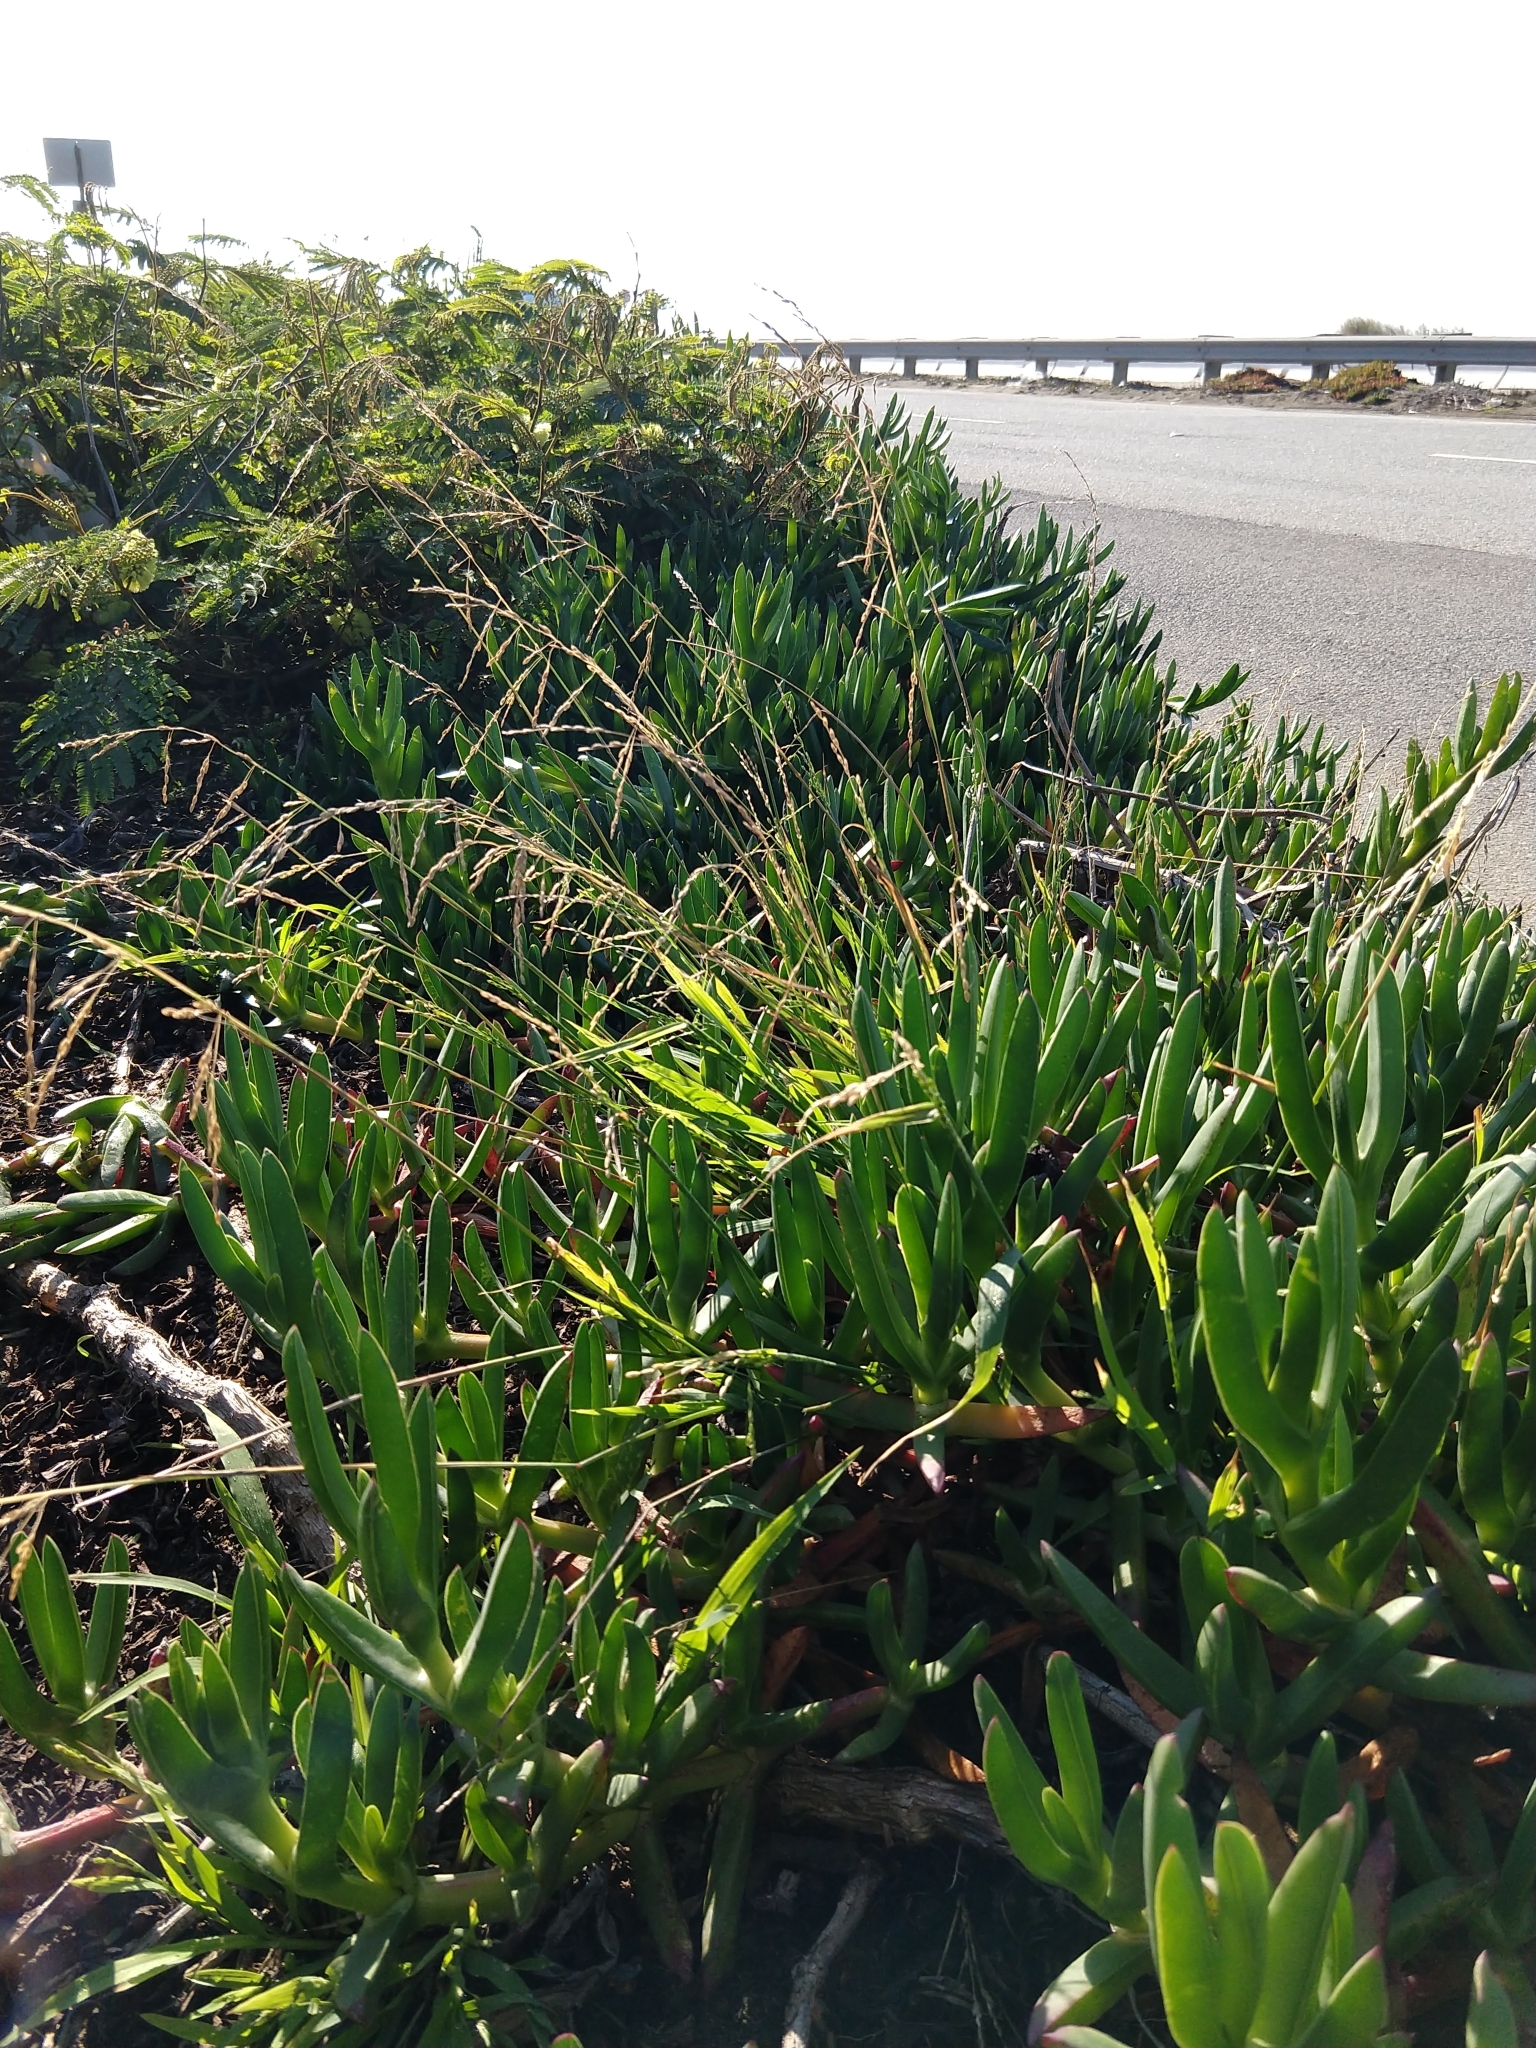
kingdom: Plantae
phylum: Tracheophyta
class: Liliopsida
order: Poales
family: Poaceae
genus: Ehrharta
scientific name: Ehrharta erecta
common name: Panic veldtgrass
